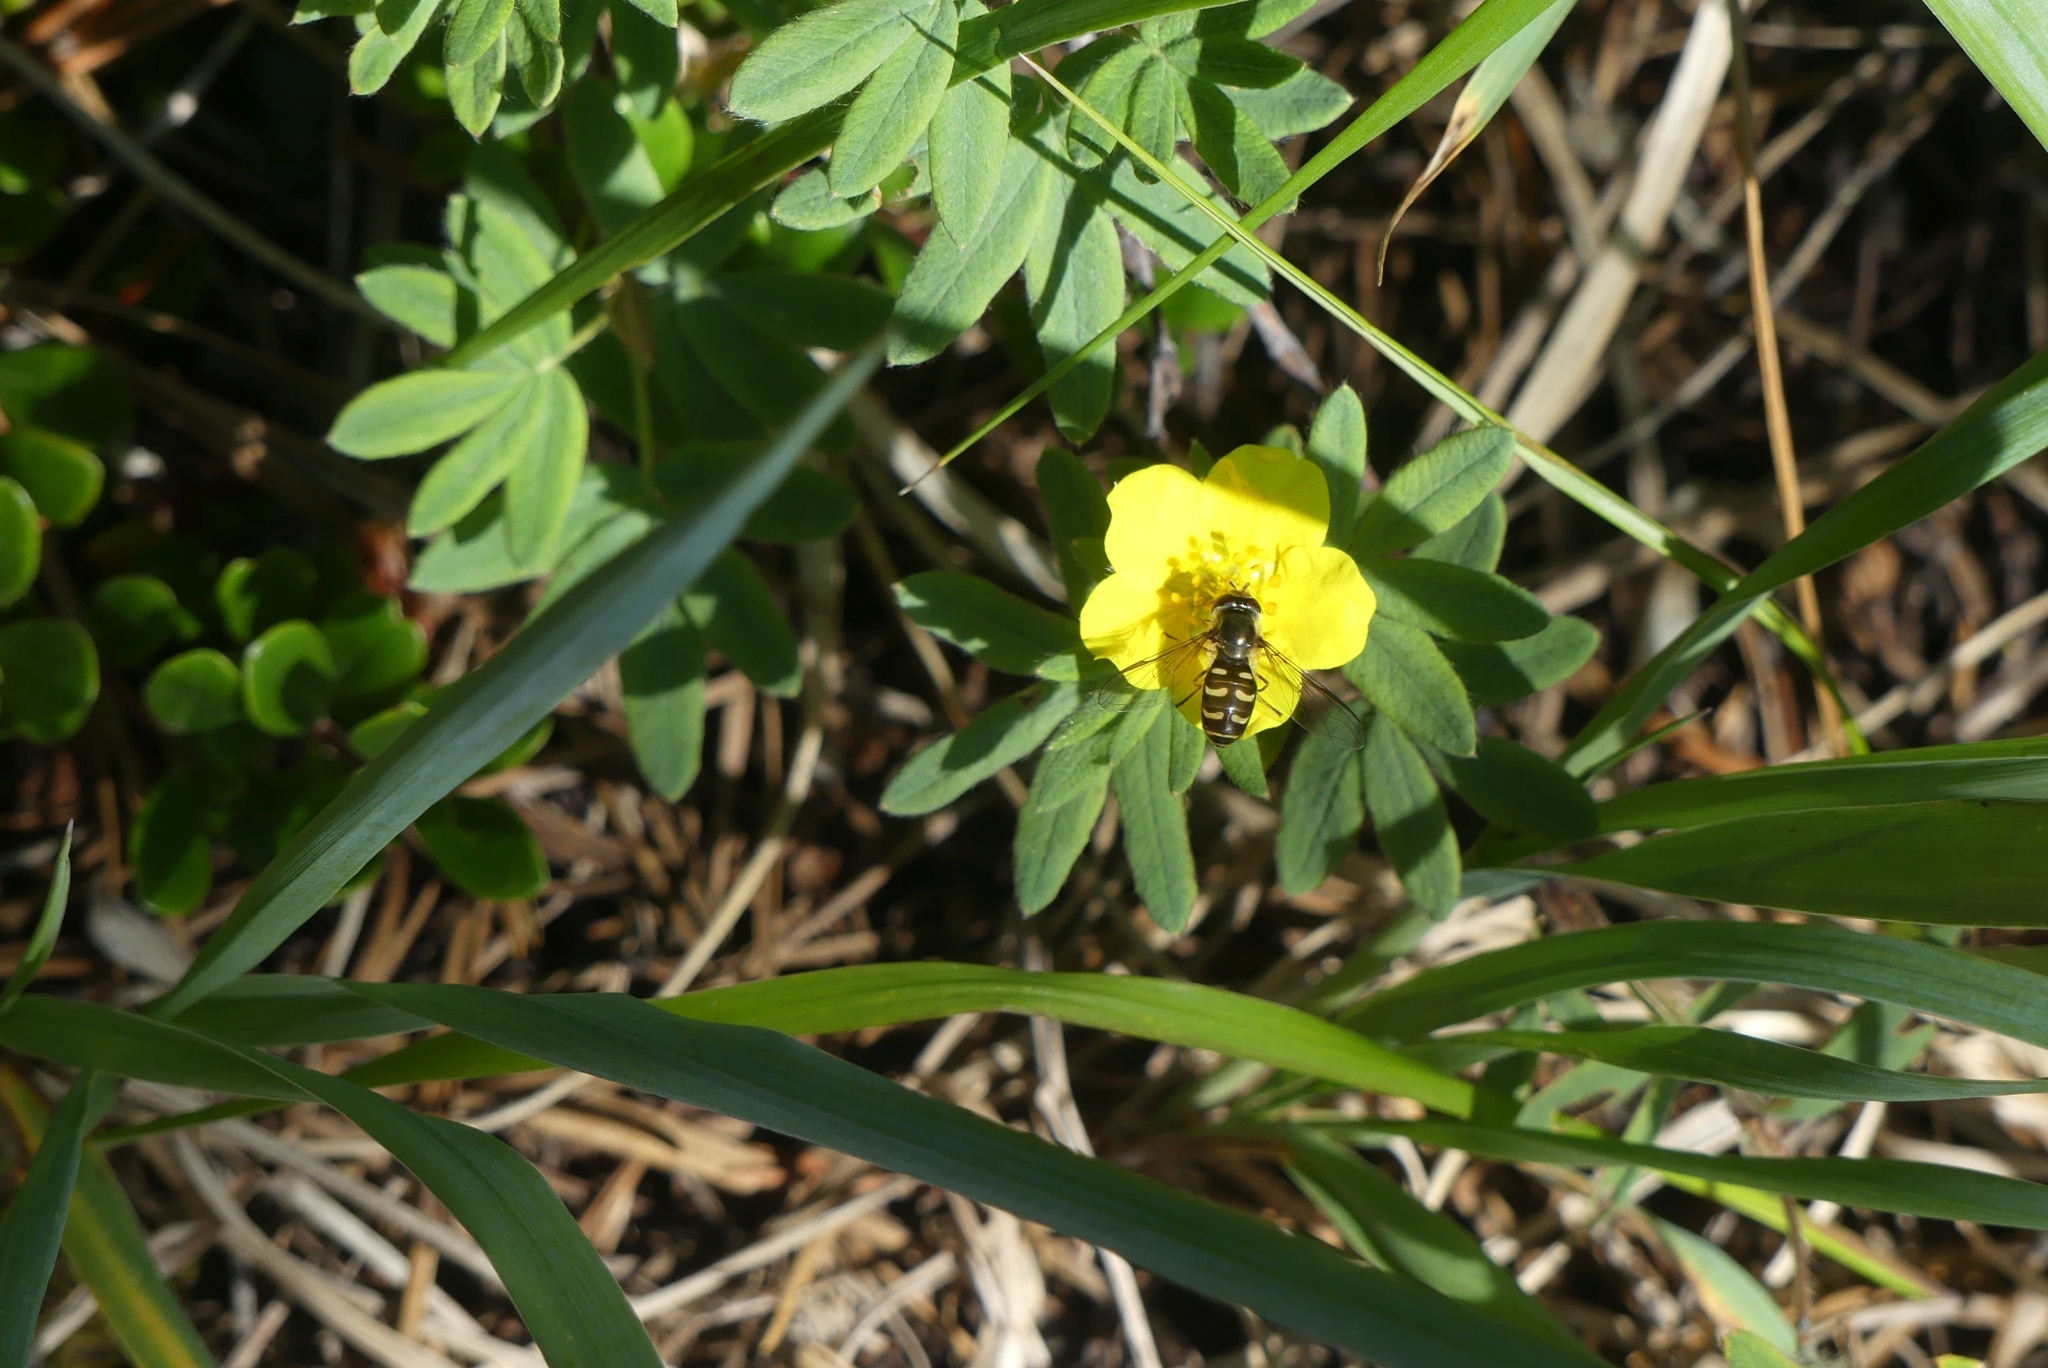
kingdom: Animalia
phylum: Arthropoda
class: Insecta
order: Diptera
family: Syrphidae
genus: Lapposyrphus
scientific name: Lapposyrphus lapponicus
